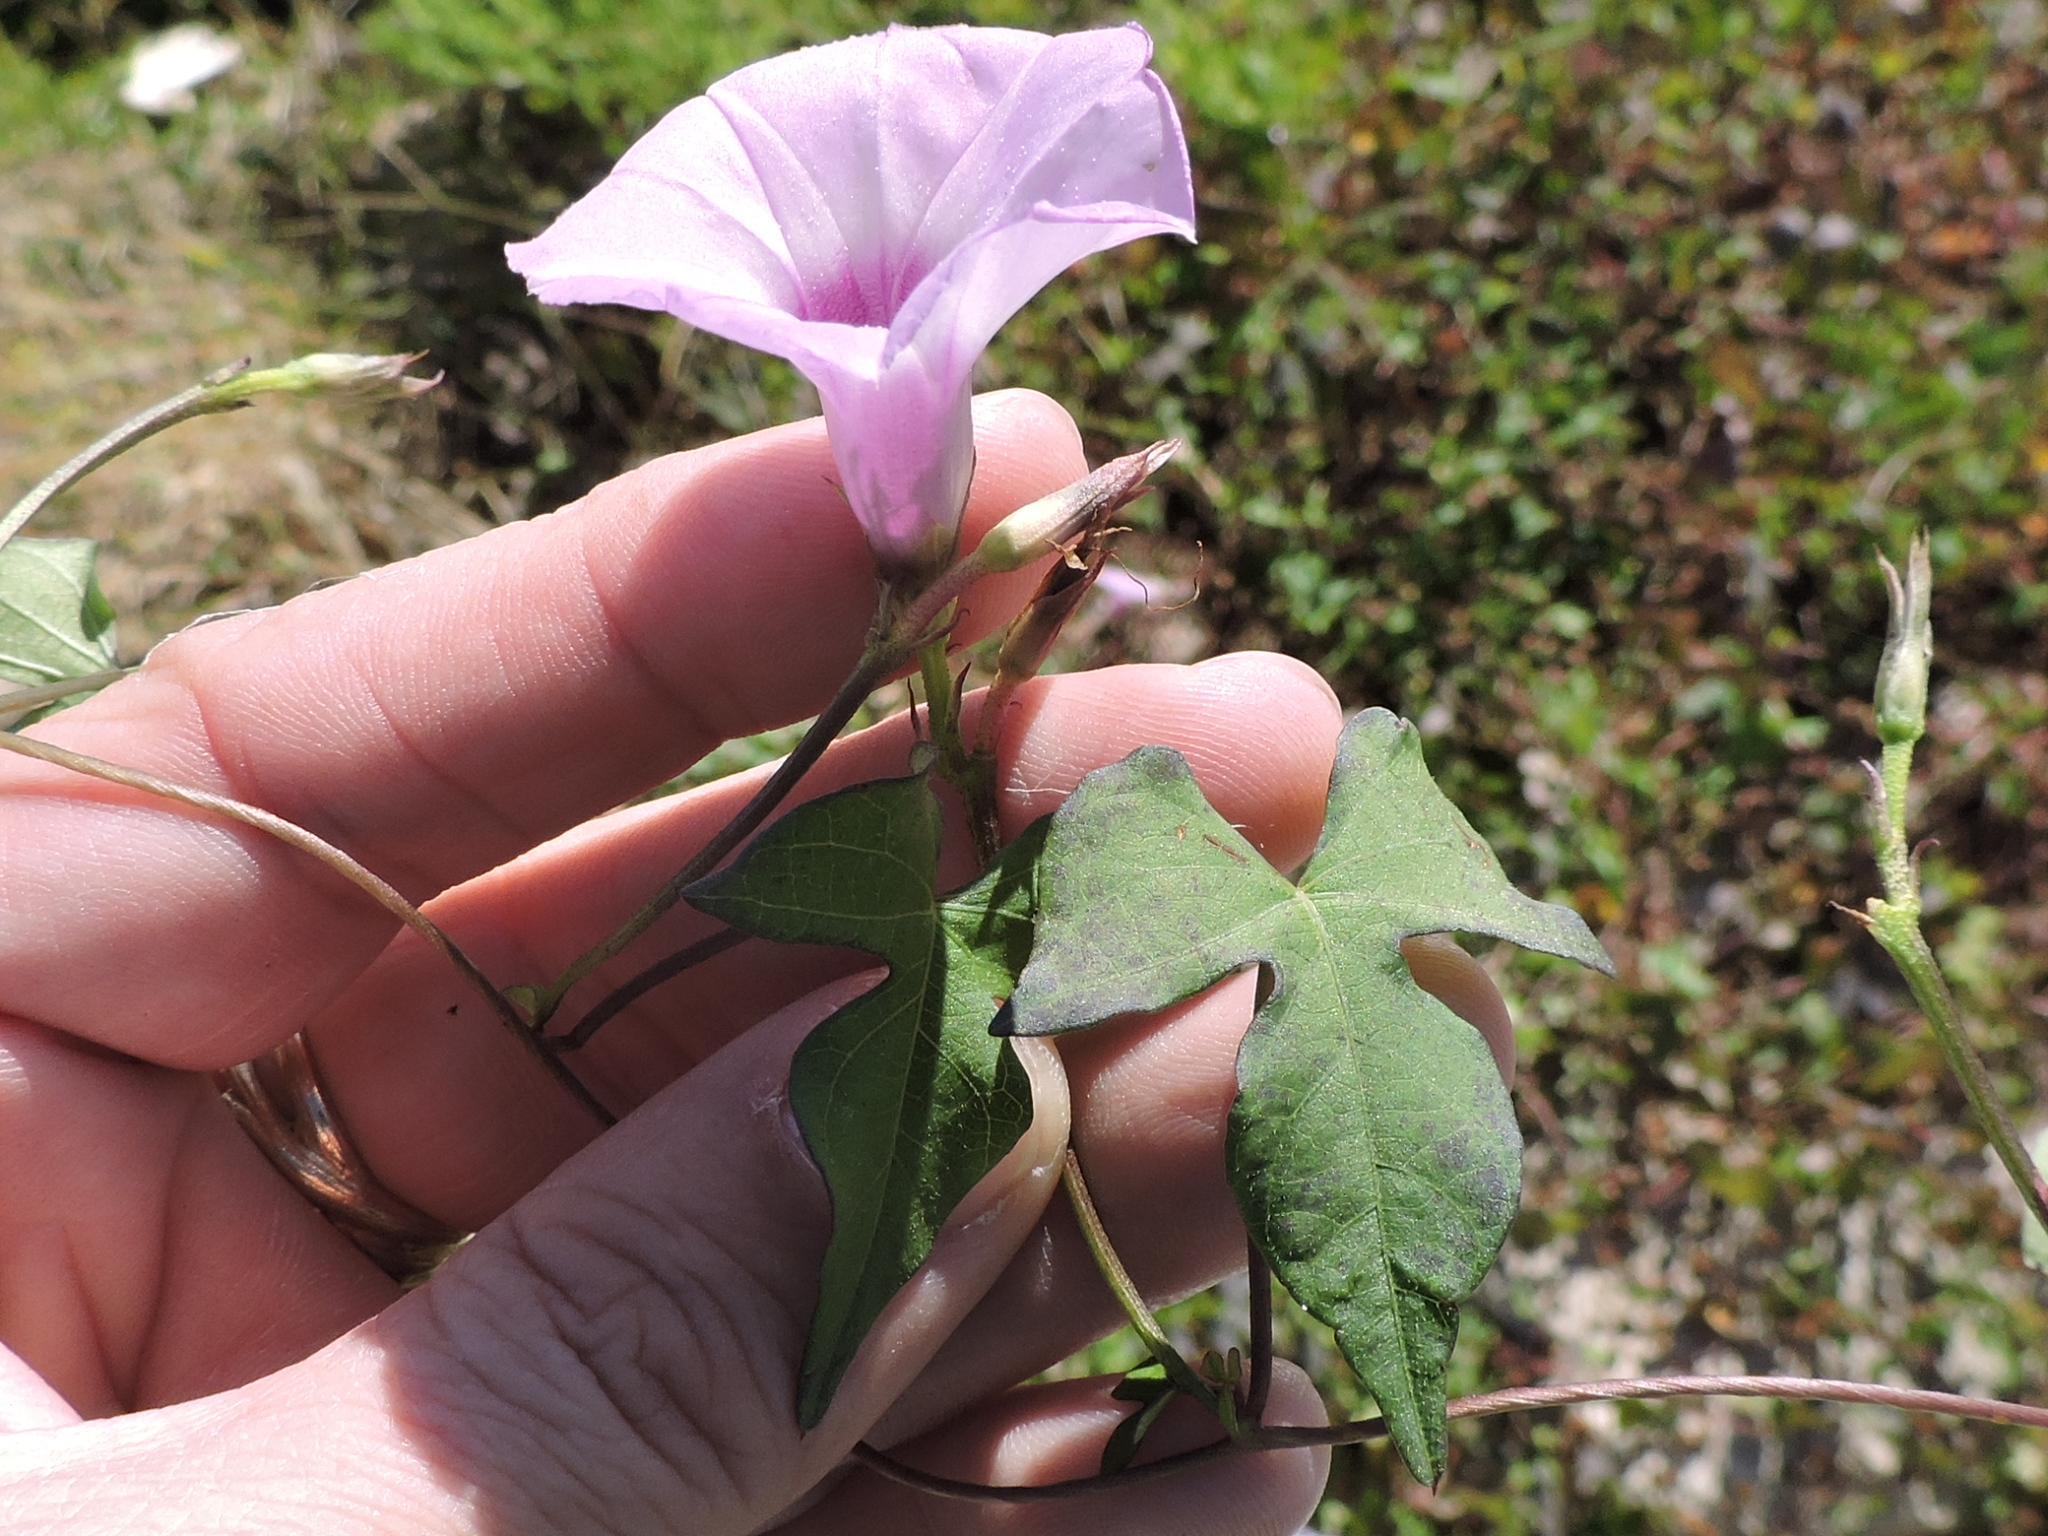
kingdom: Plantae
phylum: Tracheophyta
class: Magnoliopsida
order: Solanales
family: Convolvulaceae
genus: Ipomoea
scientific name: Ipomoea cordatotriloba
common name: Cotton morning glory
